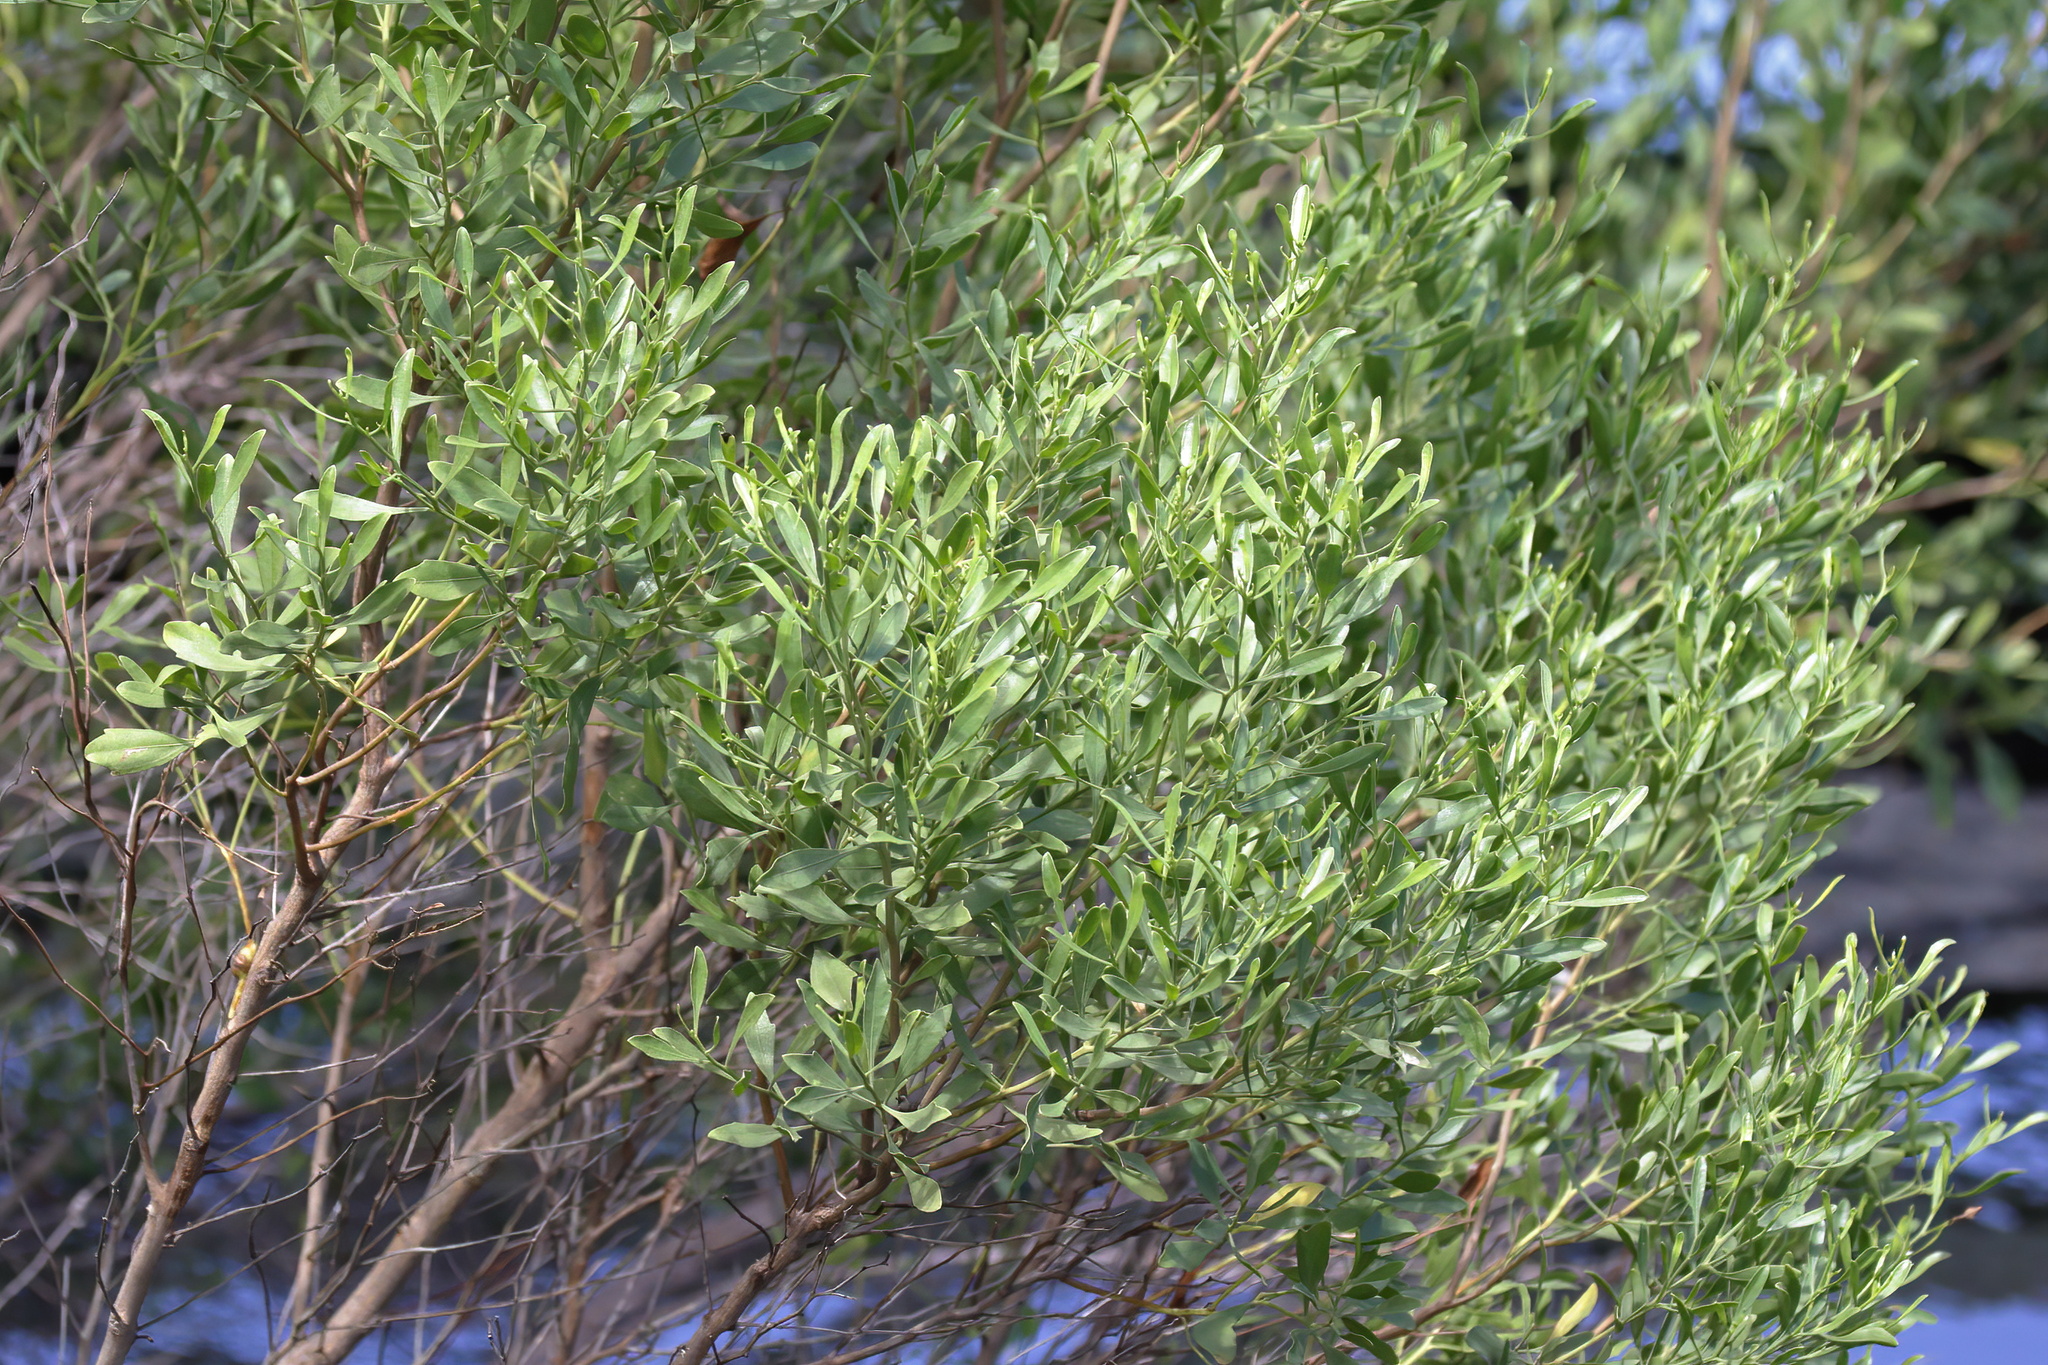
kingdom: Plantae
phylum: Tracheophyta
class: Magnoliopsida
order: Asterales
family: Asteraceae
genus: Baccharis
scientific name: Baccharis halimifolia
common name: Eastern baccharis
